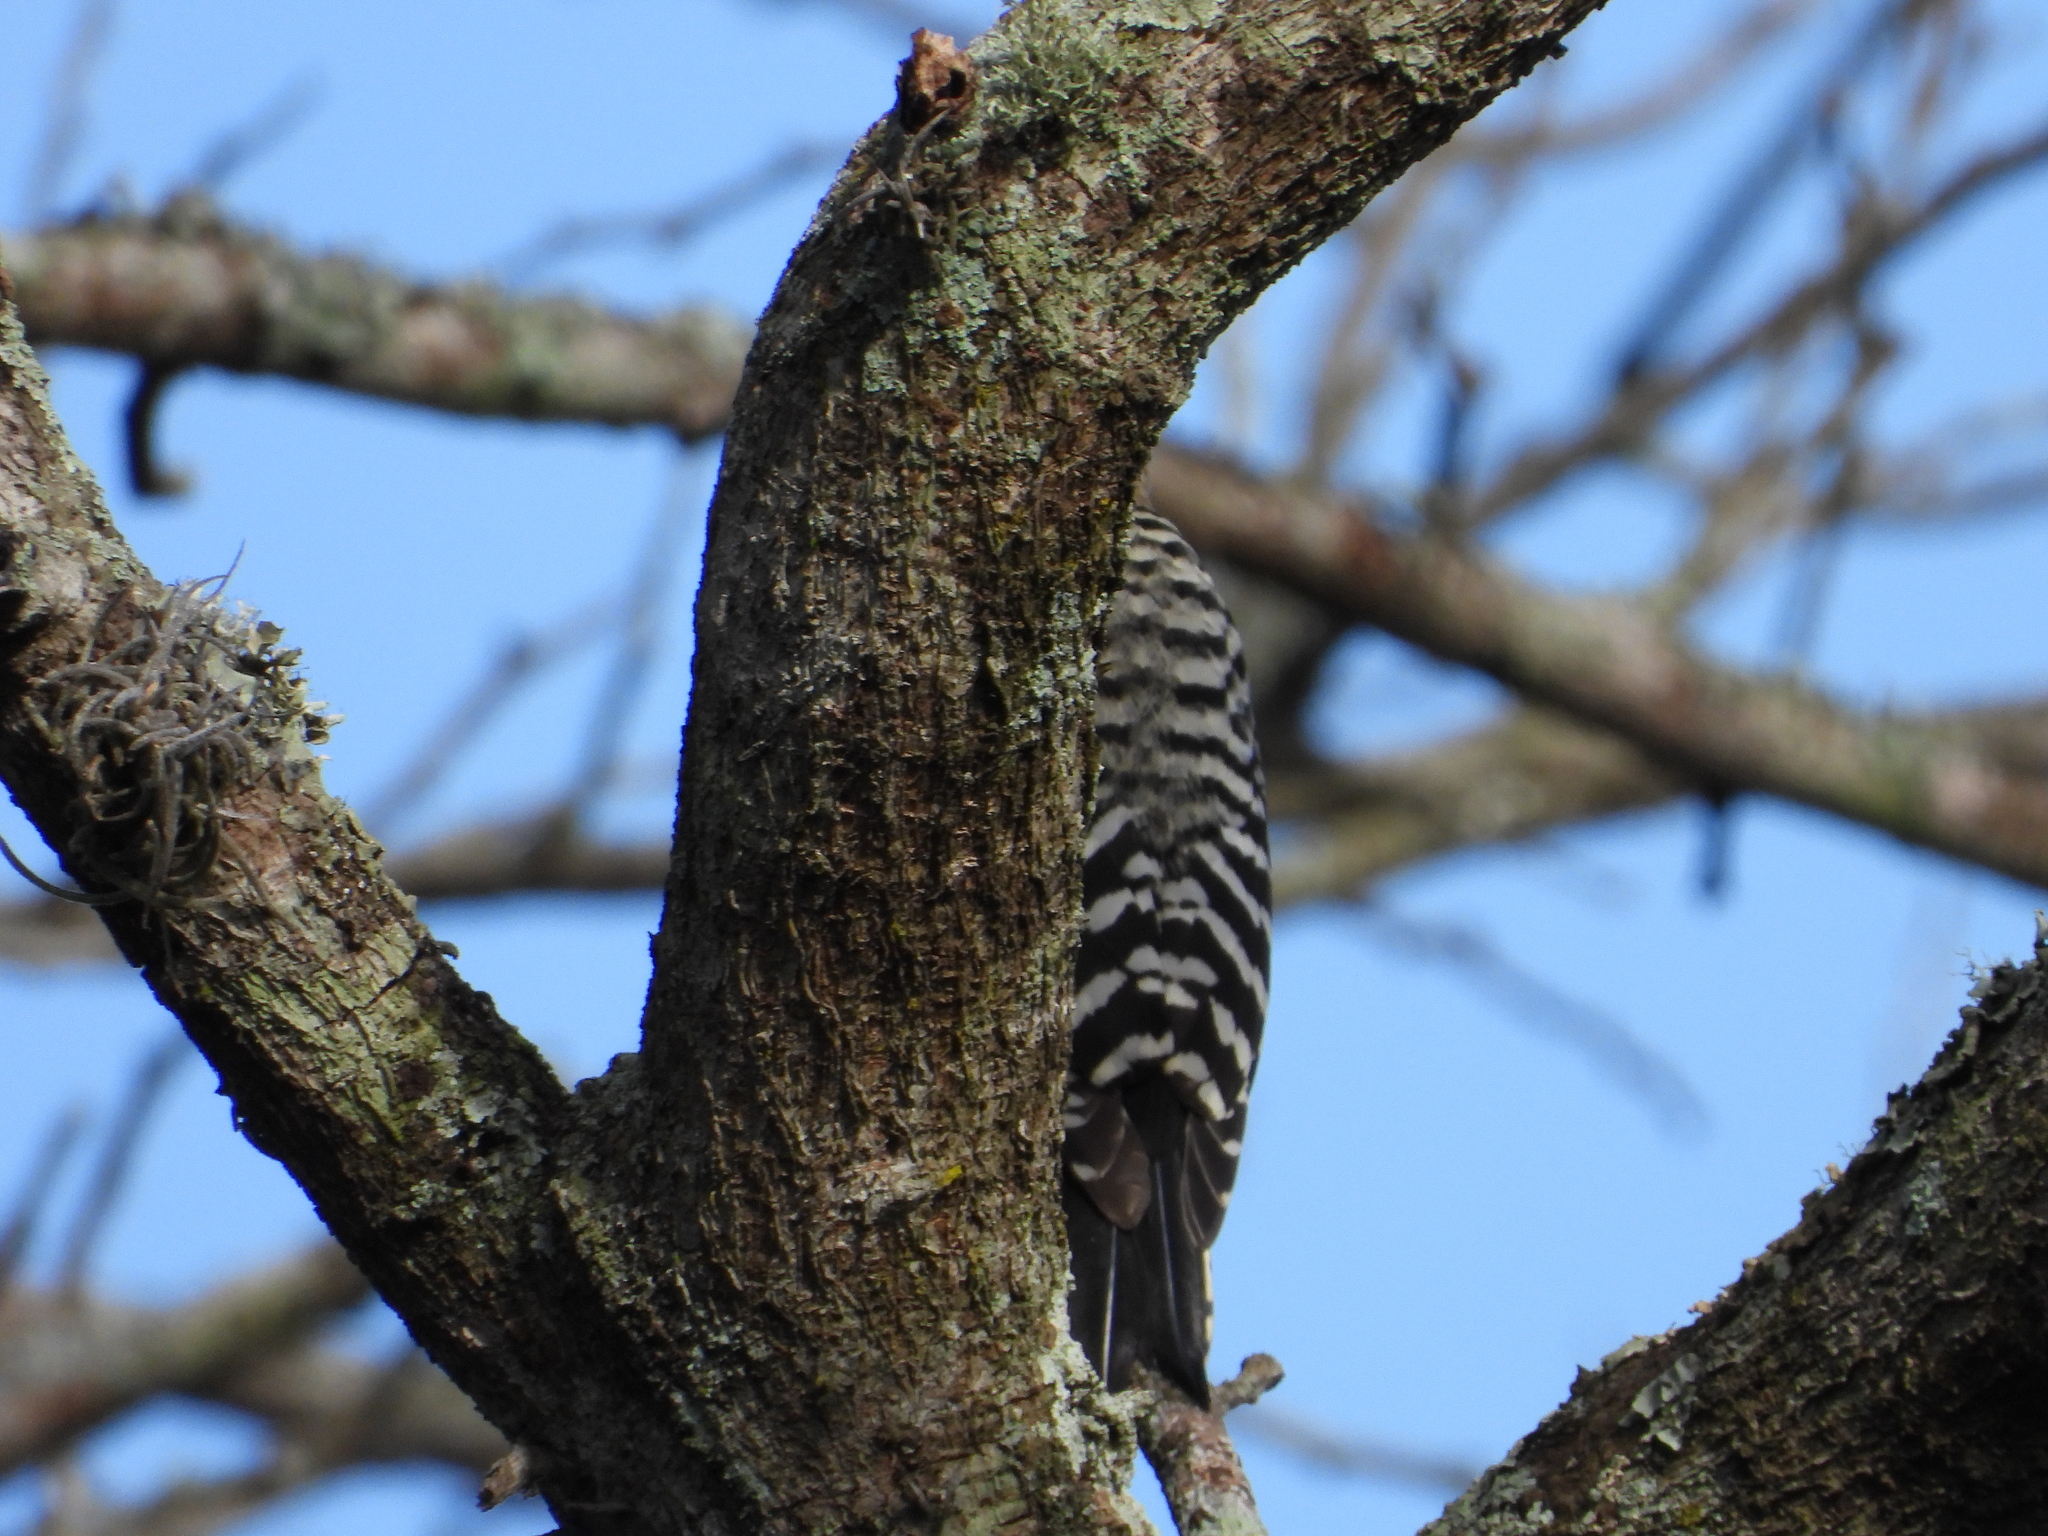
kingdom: Animalia
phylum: Chordata
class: Aves
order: Piciformes
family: Picidae
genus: Dryobates
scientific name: Dryobates scalaris
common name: Ladder-backed woodpecker
